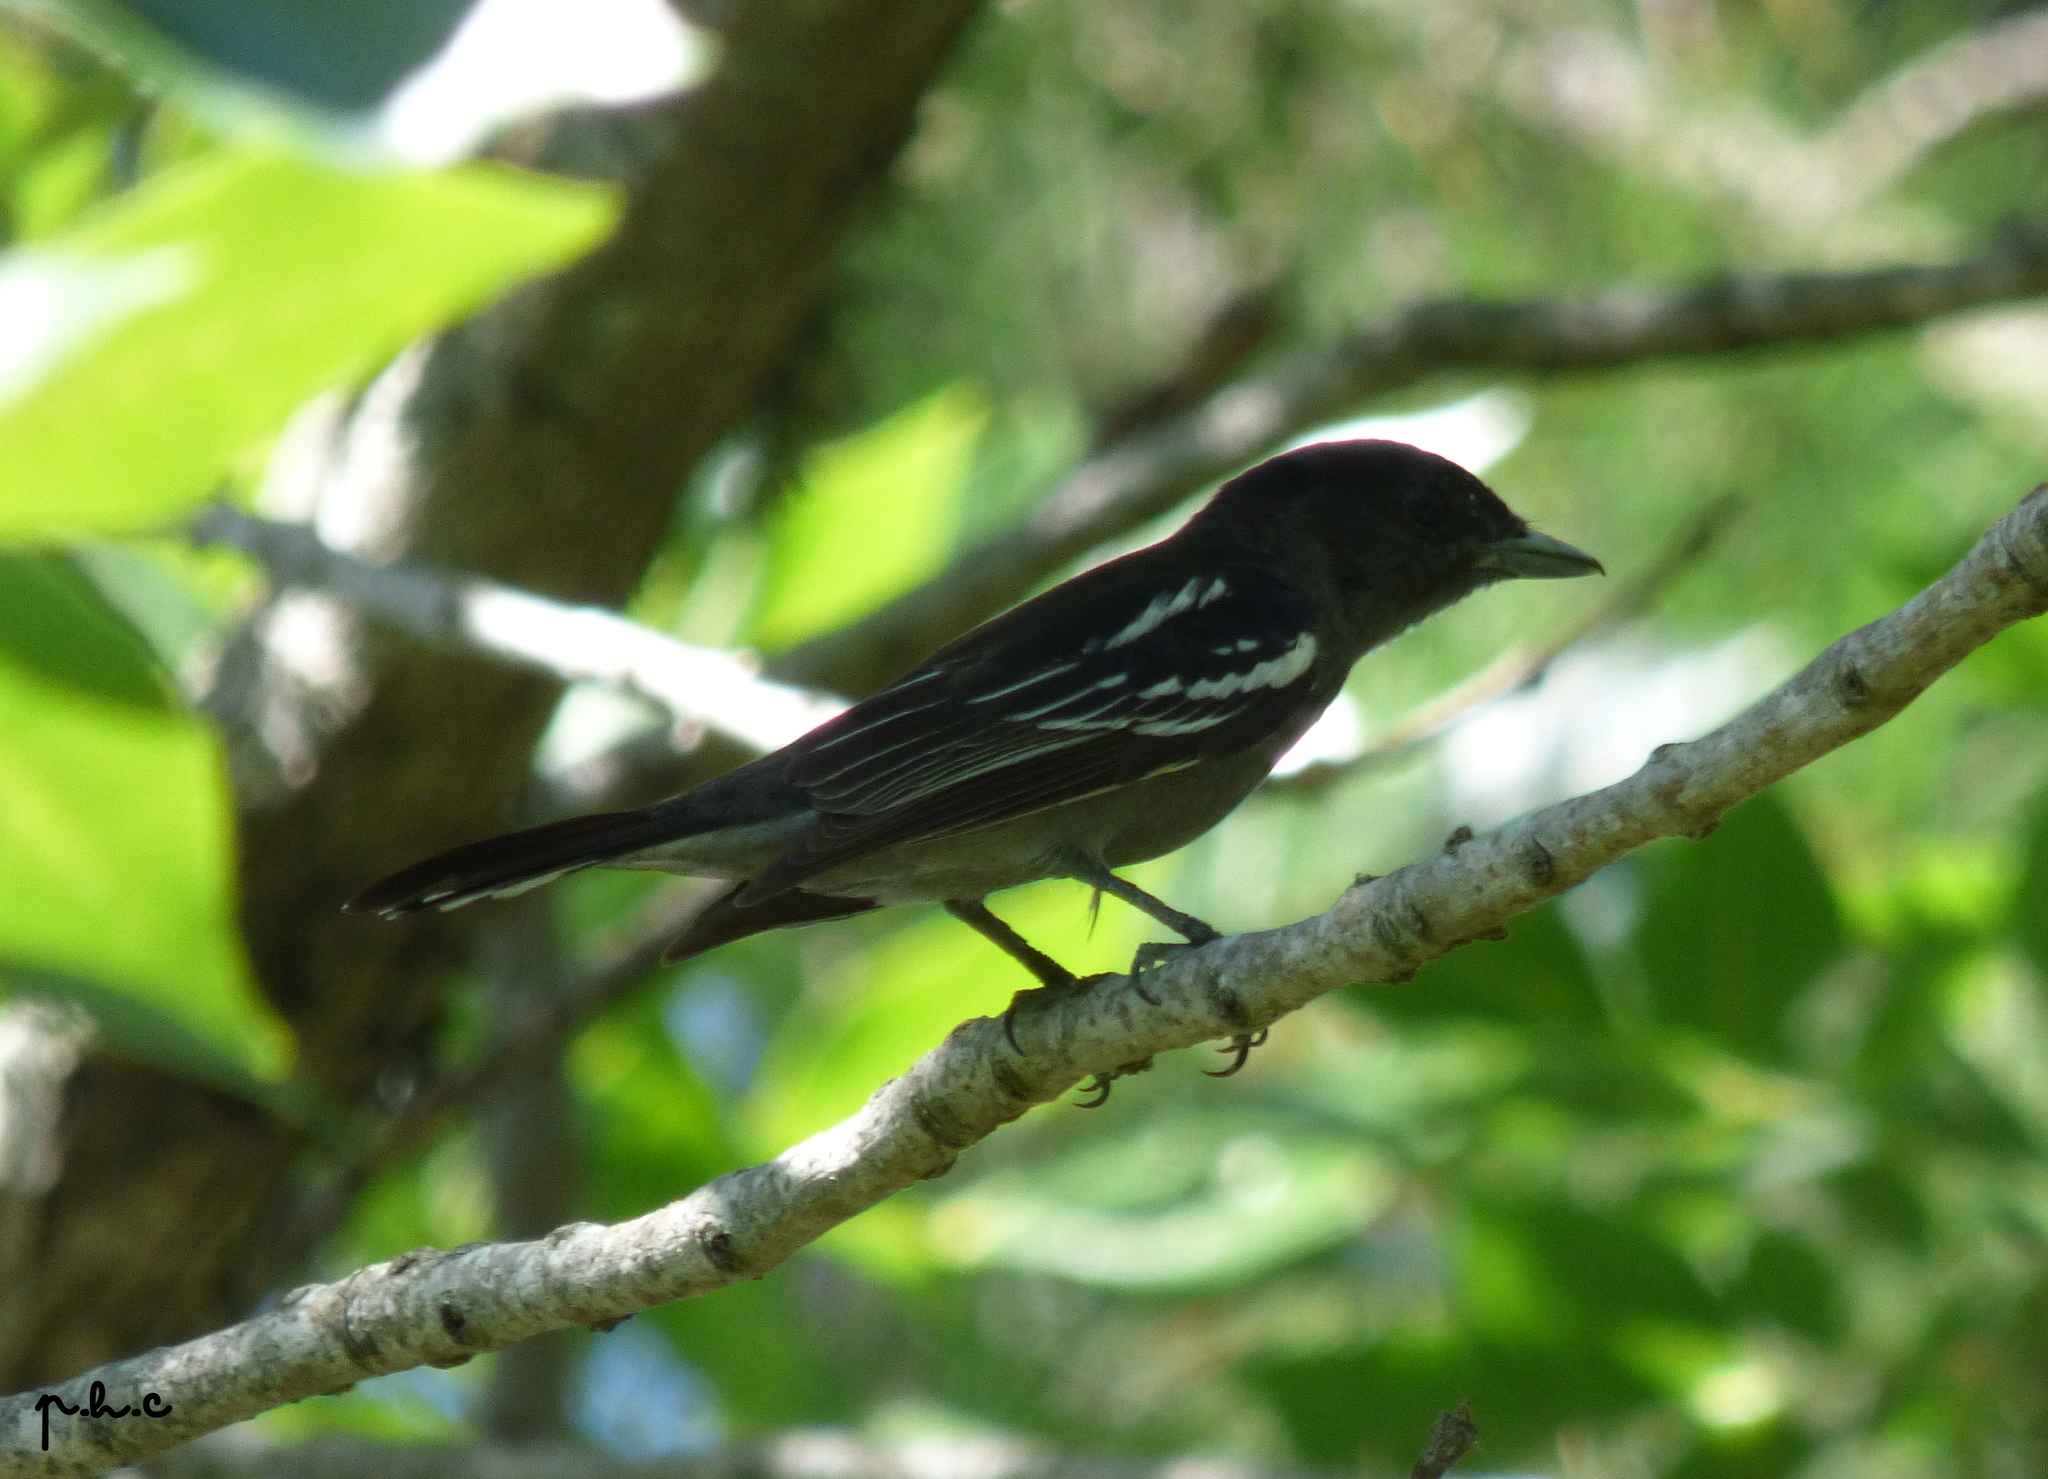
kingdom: Animalia
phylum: Chordata
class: Aves
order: Passeriformes
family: Cotingidae
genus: Pachyramphus
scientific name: Pachyramphus polychopterus
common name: White-winged becard
